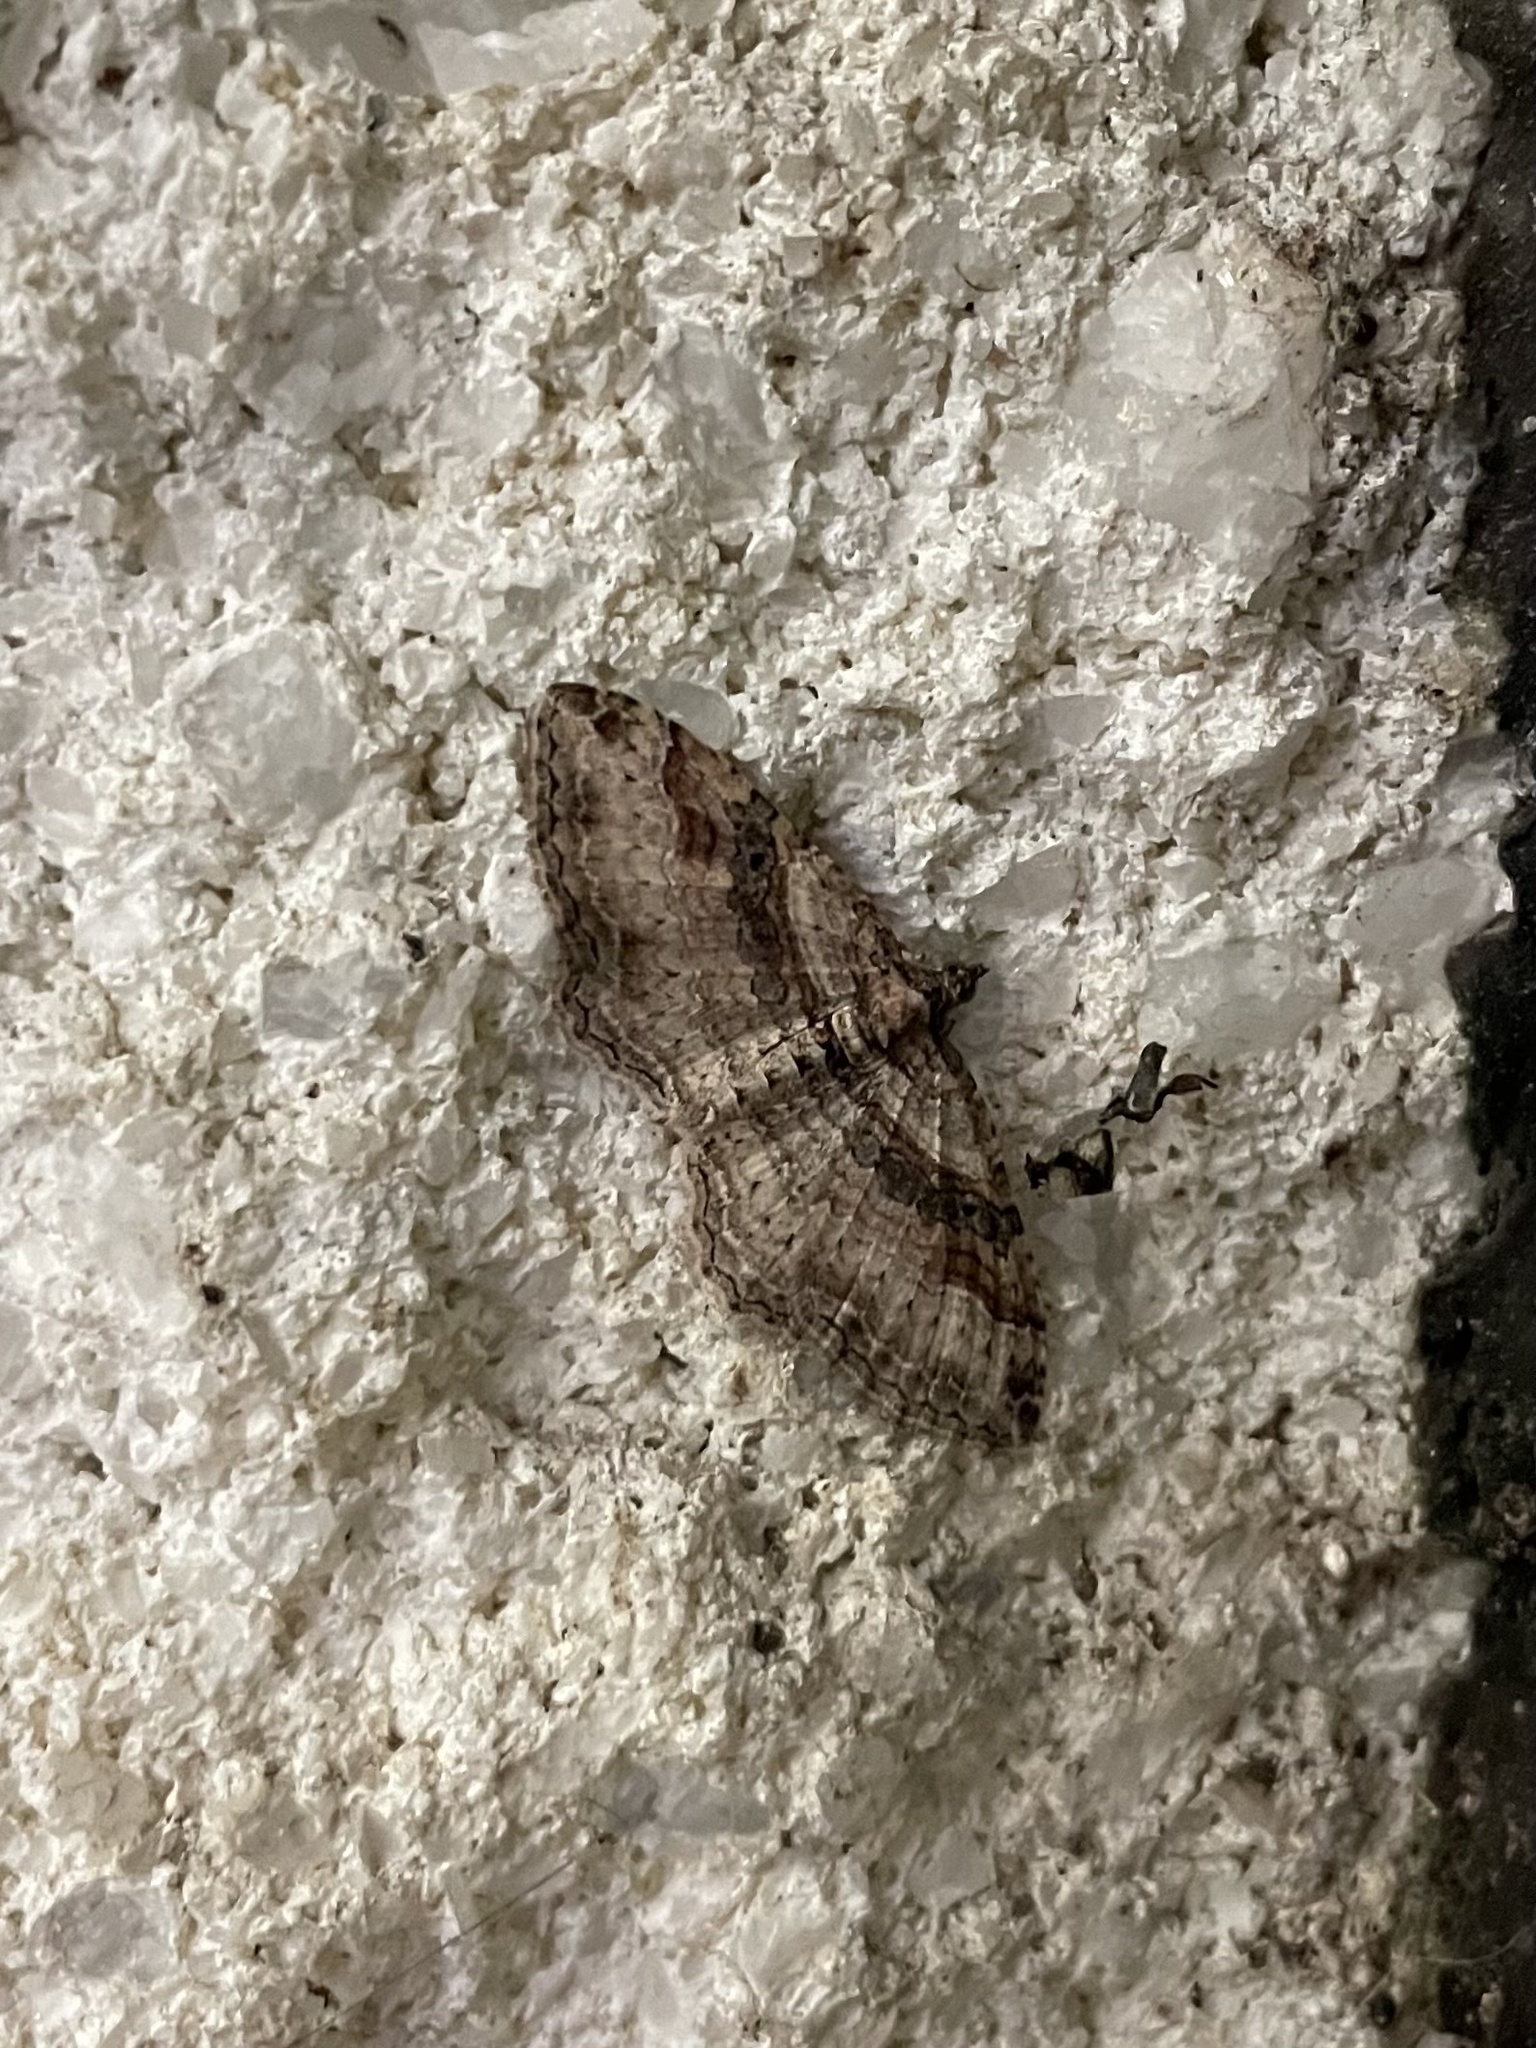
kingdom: Animalia
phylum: Arthropoda
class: Insecta
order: Lepidoptera
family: Geometridae
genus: Costaconvexa
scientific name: Costaconvexa centrostrigaria
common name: Bent-line carpet
